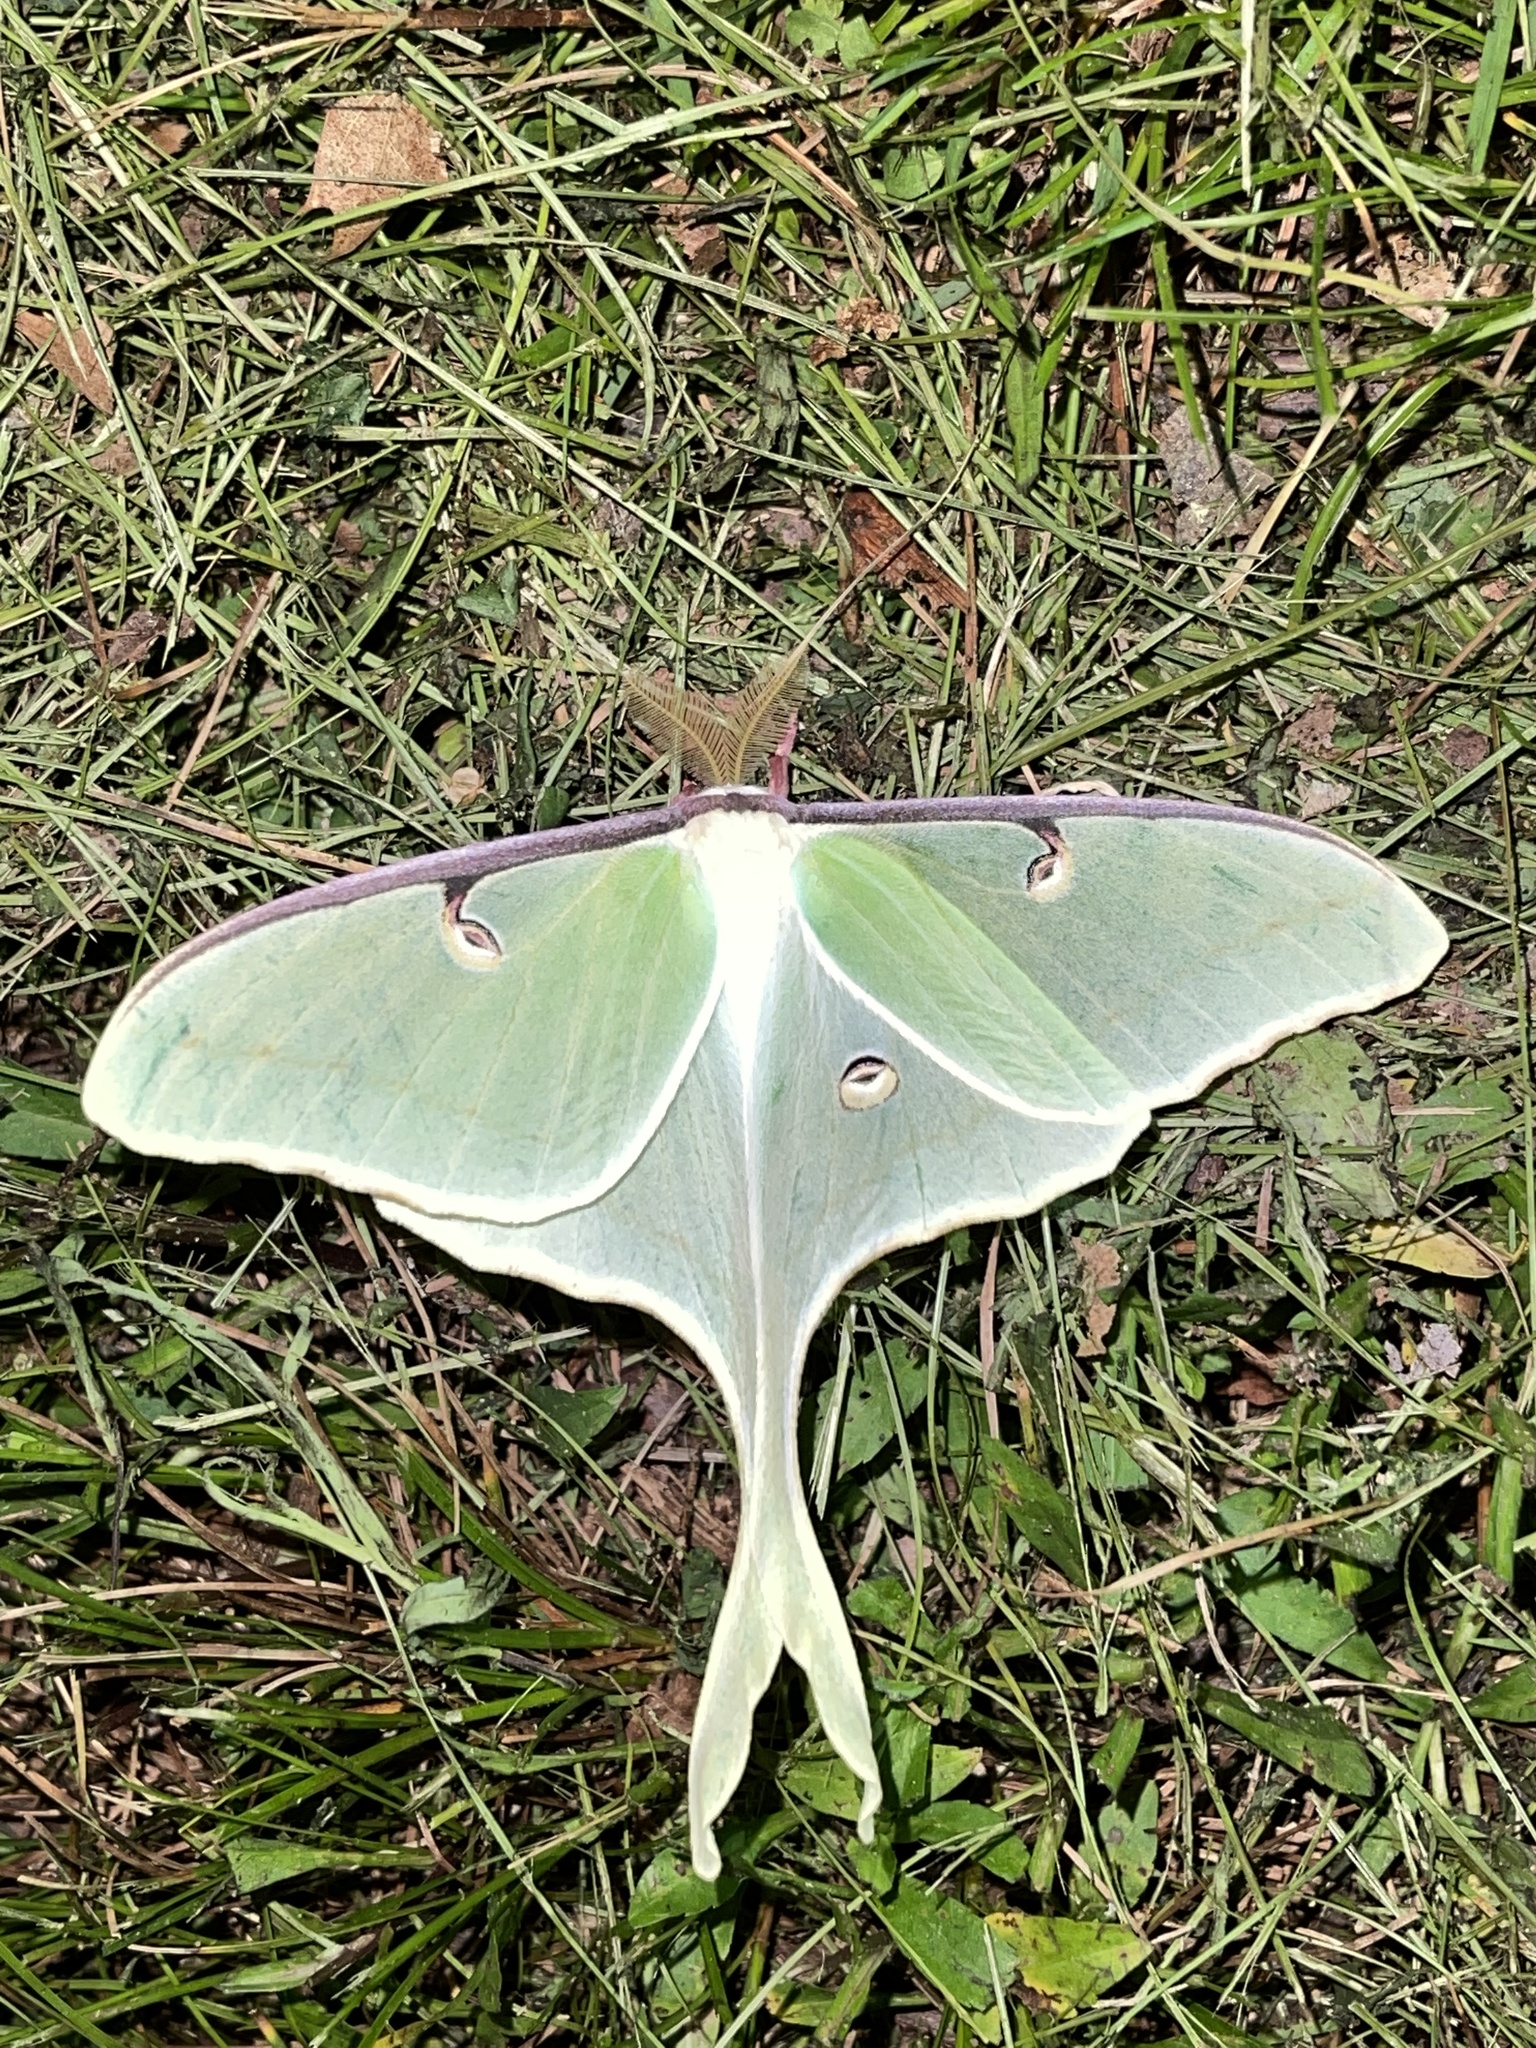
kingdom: Animalia
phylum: Arthropoda
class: Insecta
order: Lepidoptera
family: Saturniidae
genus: Actias
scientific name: Actias luna
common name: Luna moth
